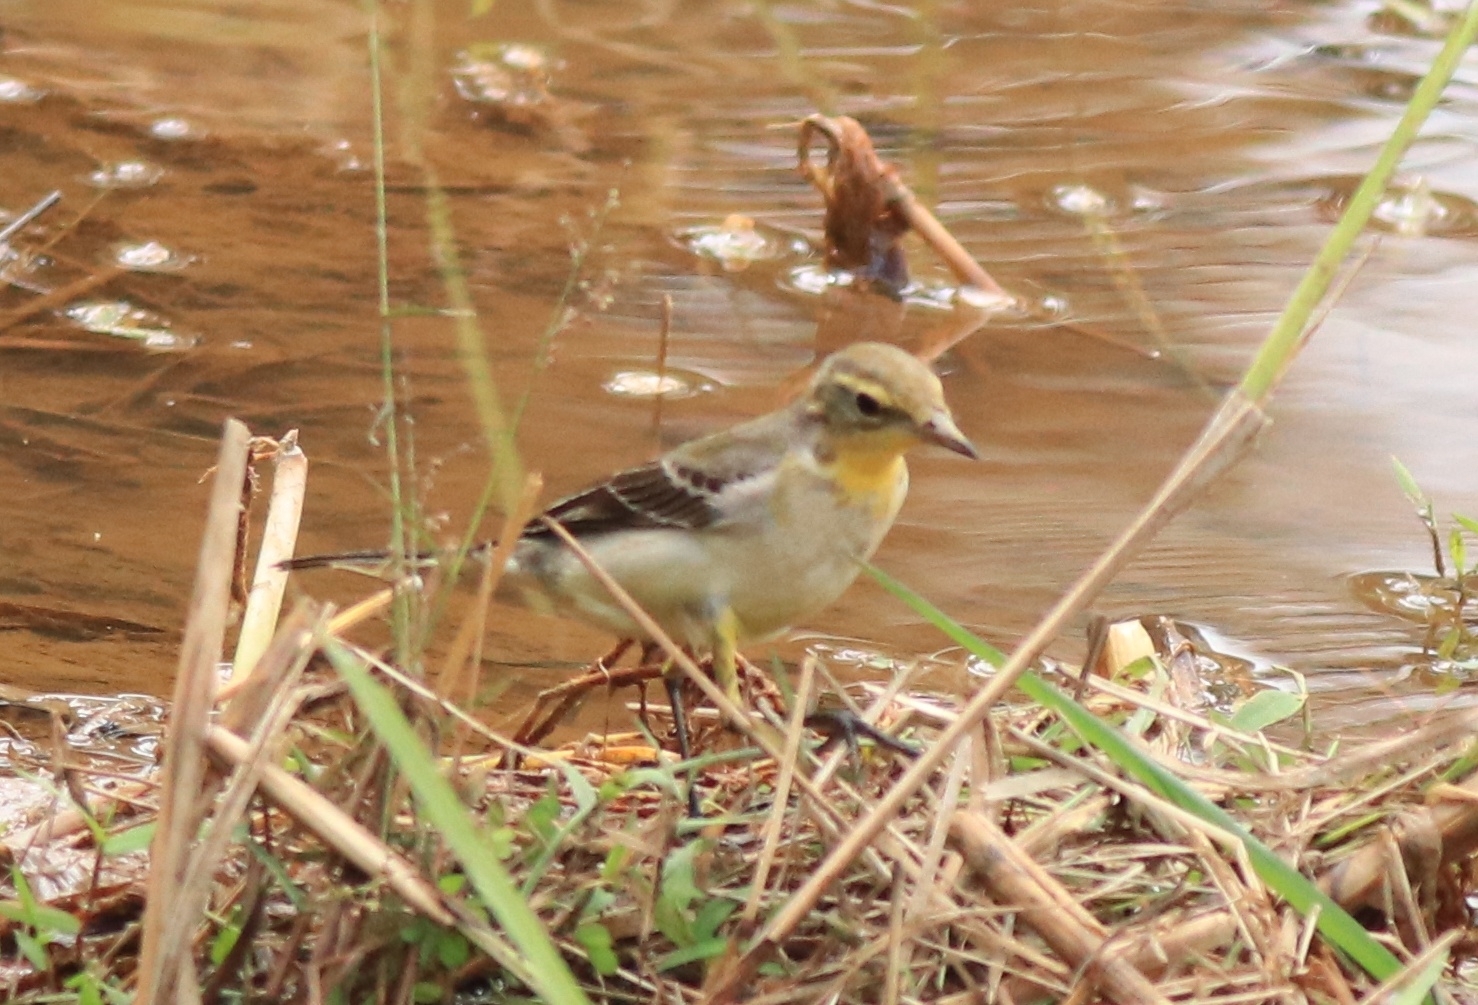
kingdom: Animalia
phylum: Chordata
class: Aves
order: Passeriformes
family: Motacillidae
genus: Motacilla
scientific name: Motacilla flava
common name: Western yellow wagtail
